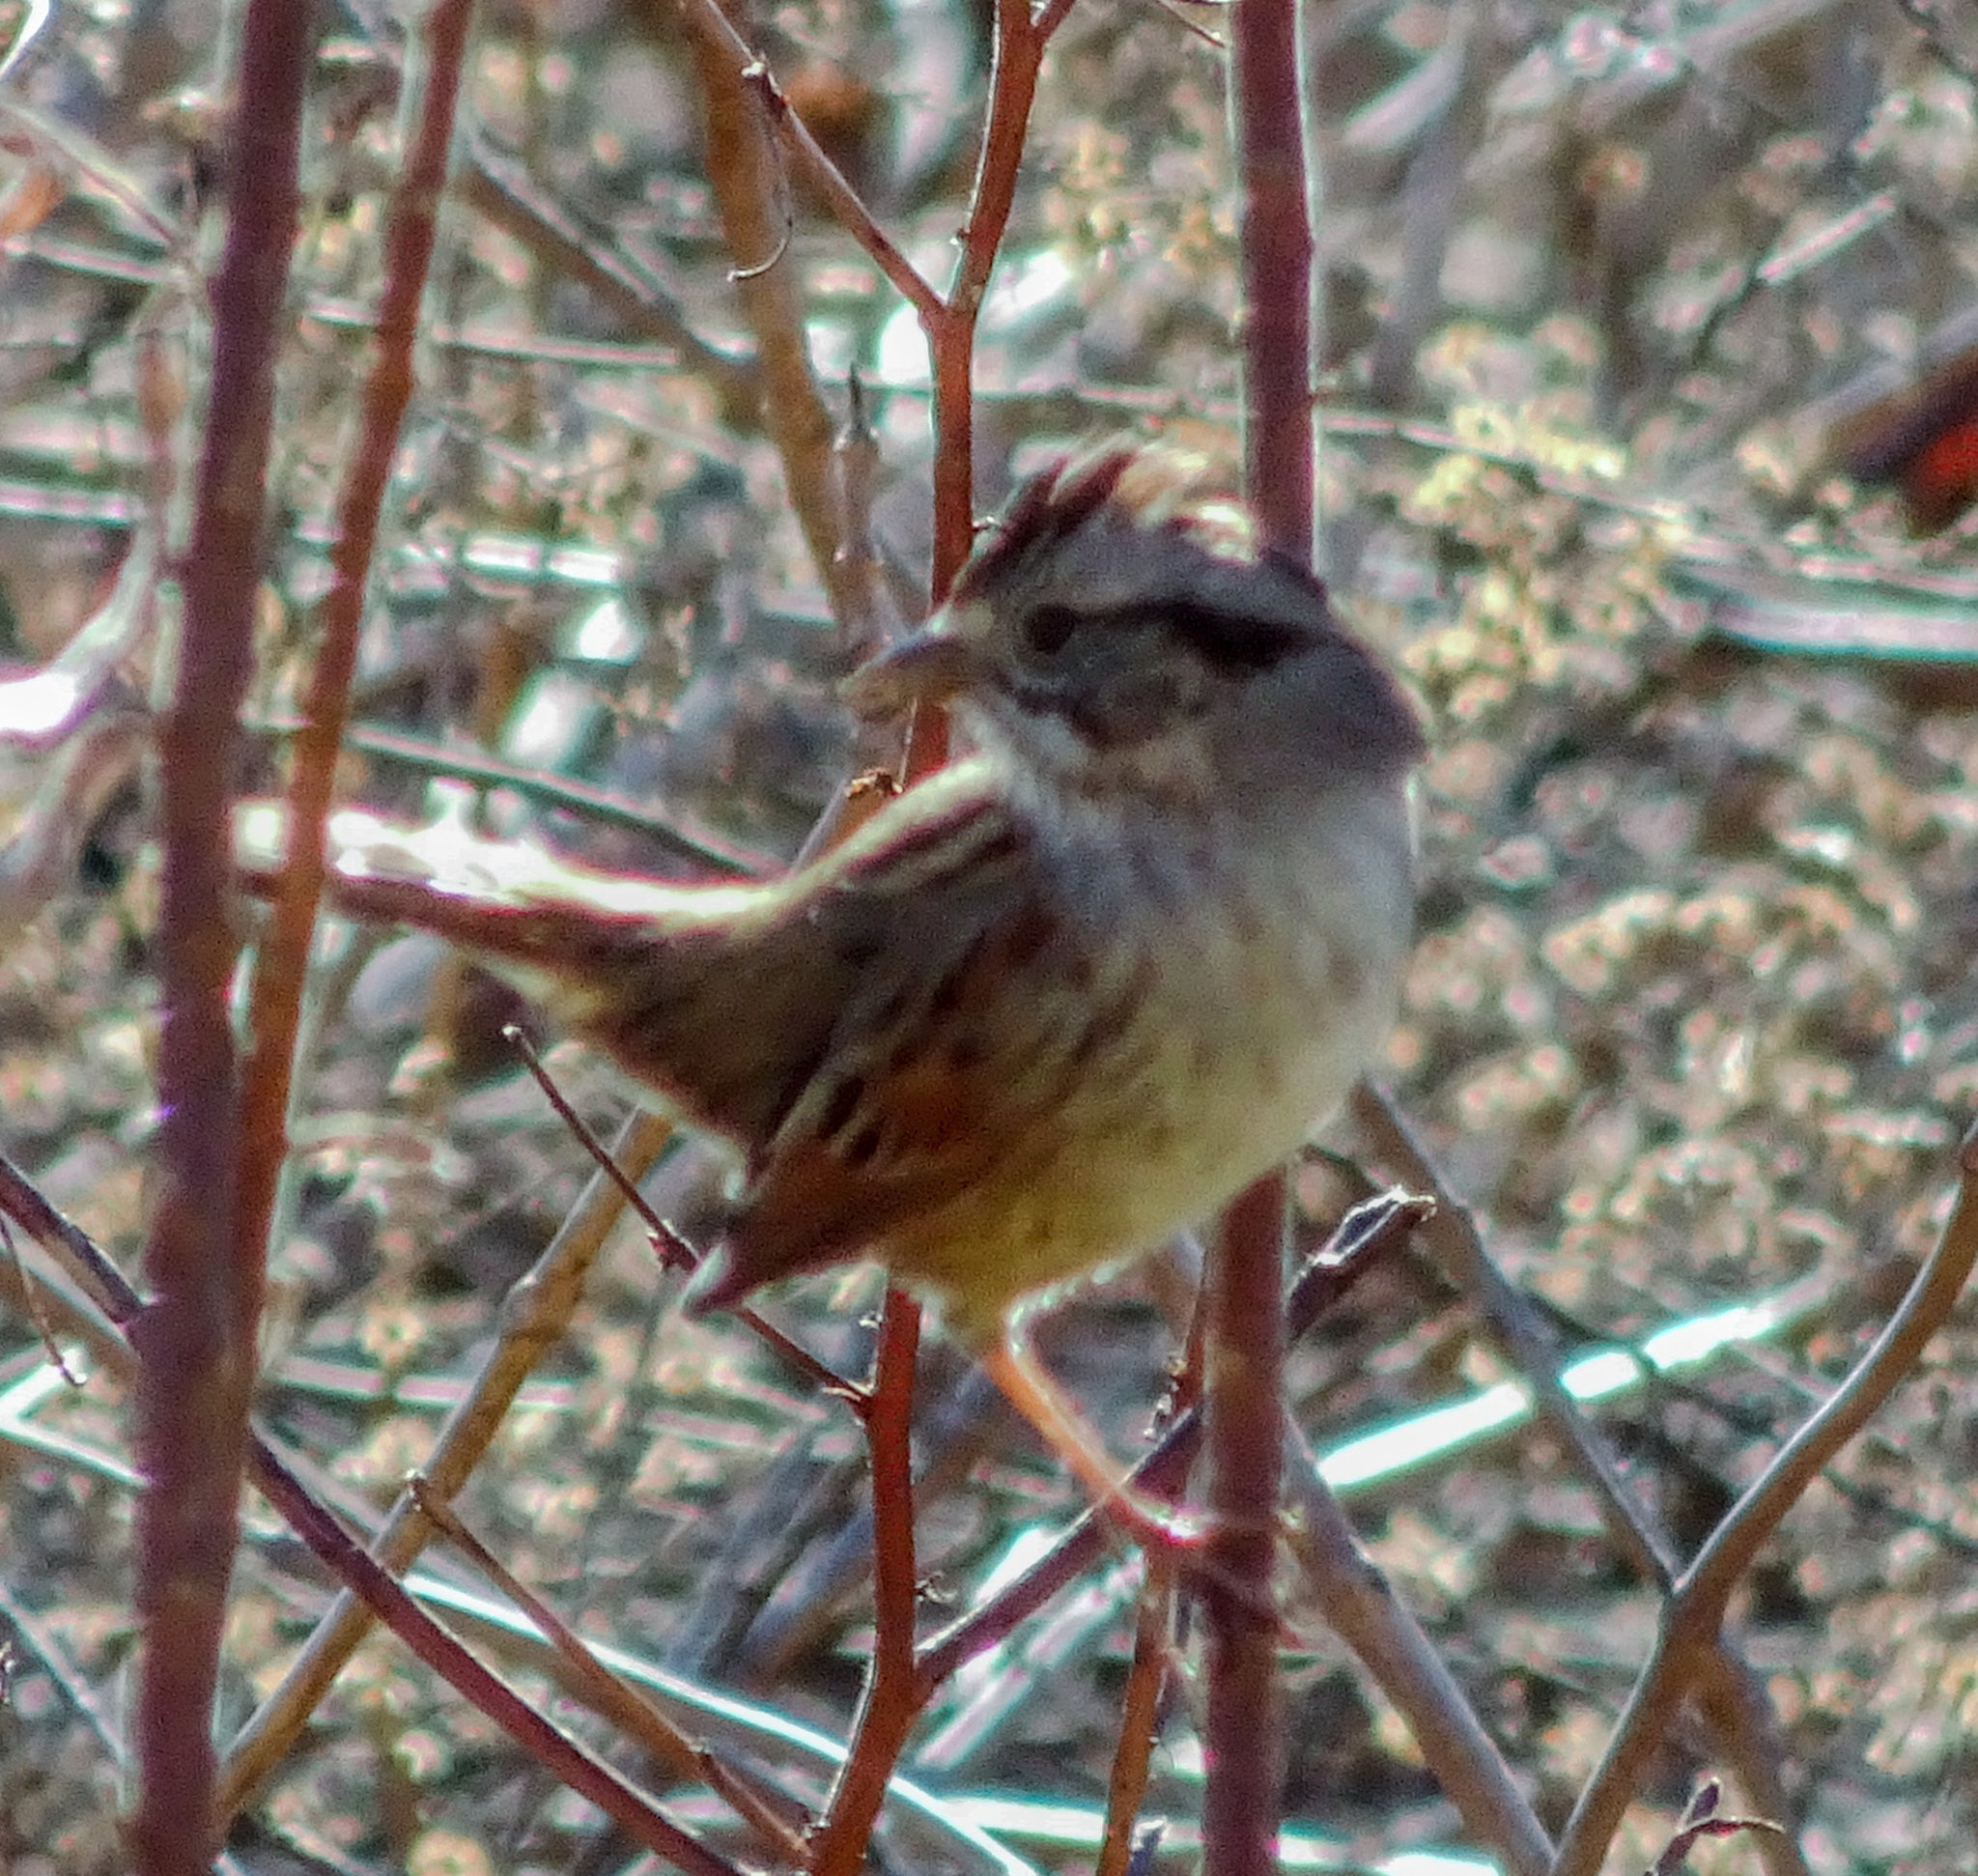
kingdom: Animalia
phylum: Chordata
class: Aves
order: Passeriformes
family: Passerellidae
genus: Melospiza
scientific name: Melospiza georgiana
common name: Swamp sparrow
